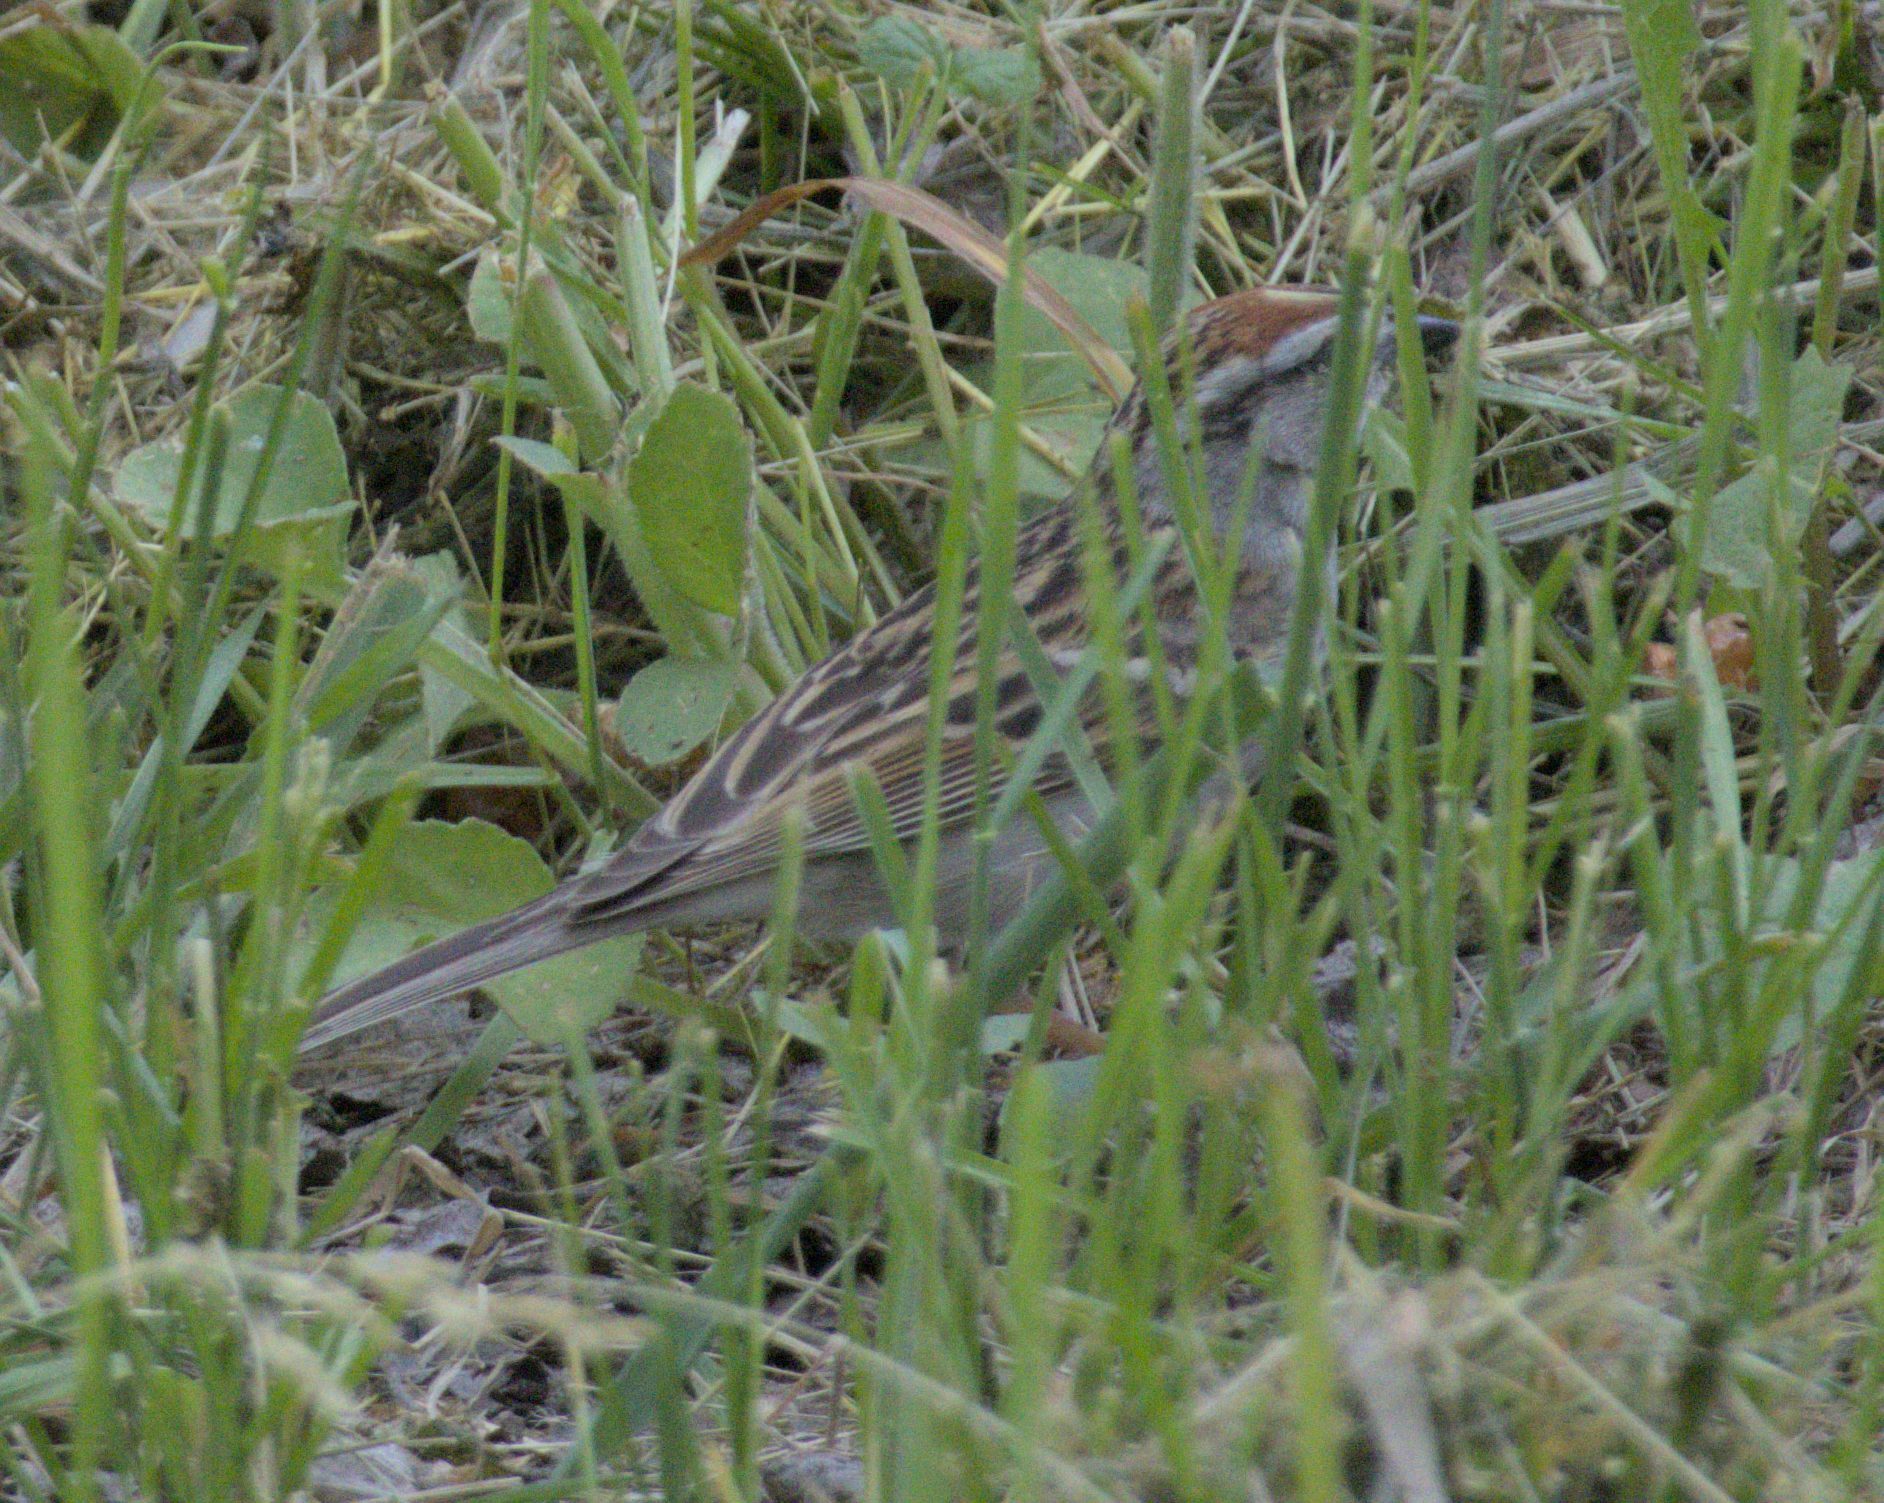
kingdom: Animalia
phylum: Chordata
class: Aves
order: Passeriformes
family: Passerellidae
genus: Spizella
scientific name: Spizella passerina
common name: Chipping sparrow
